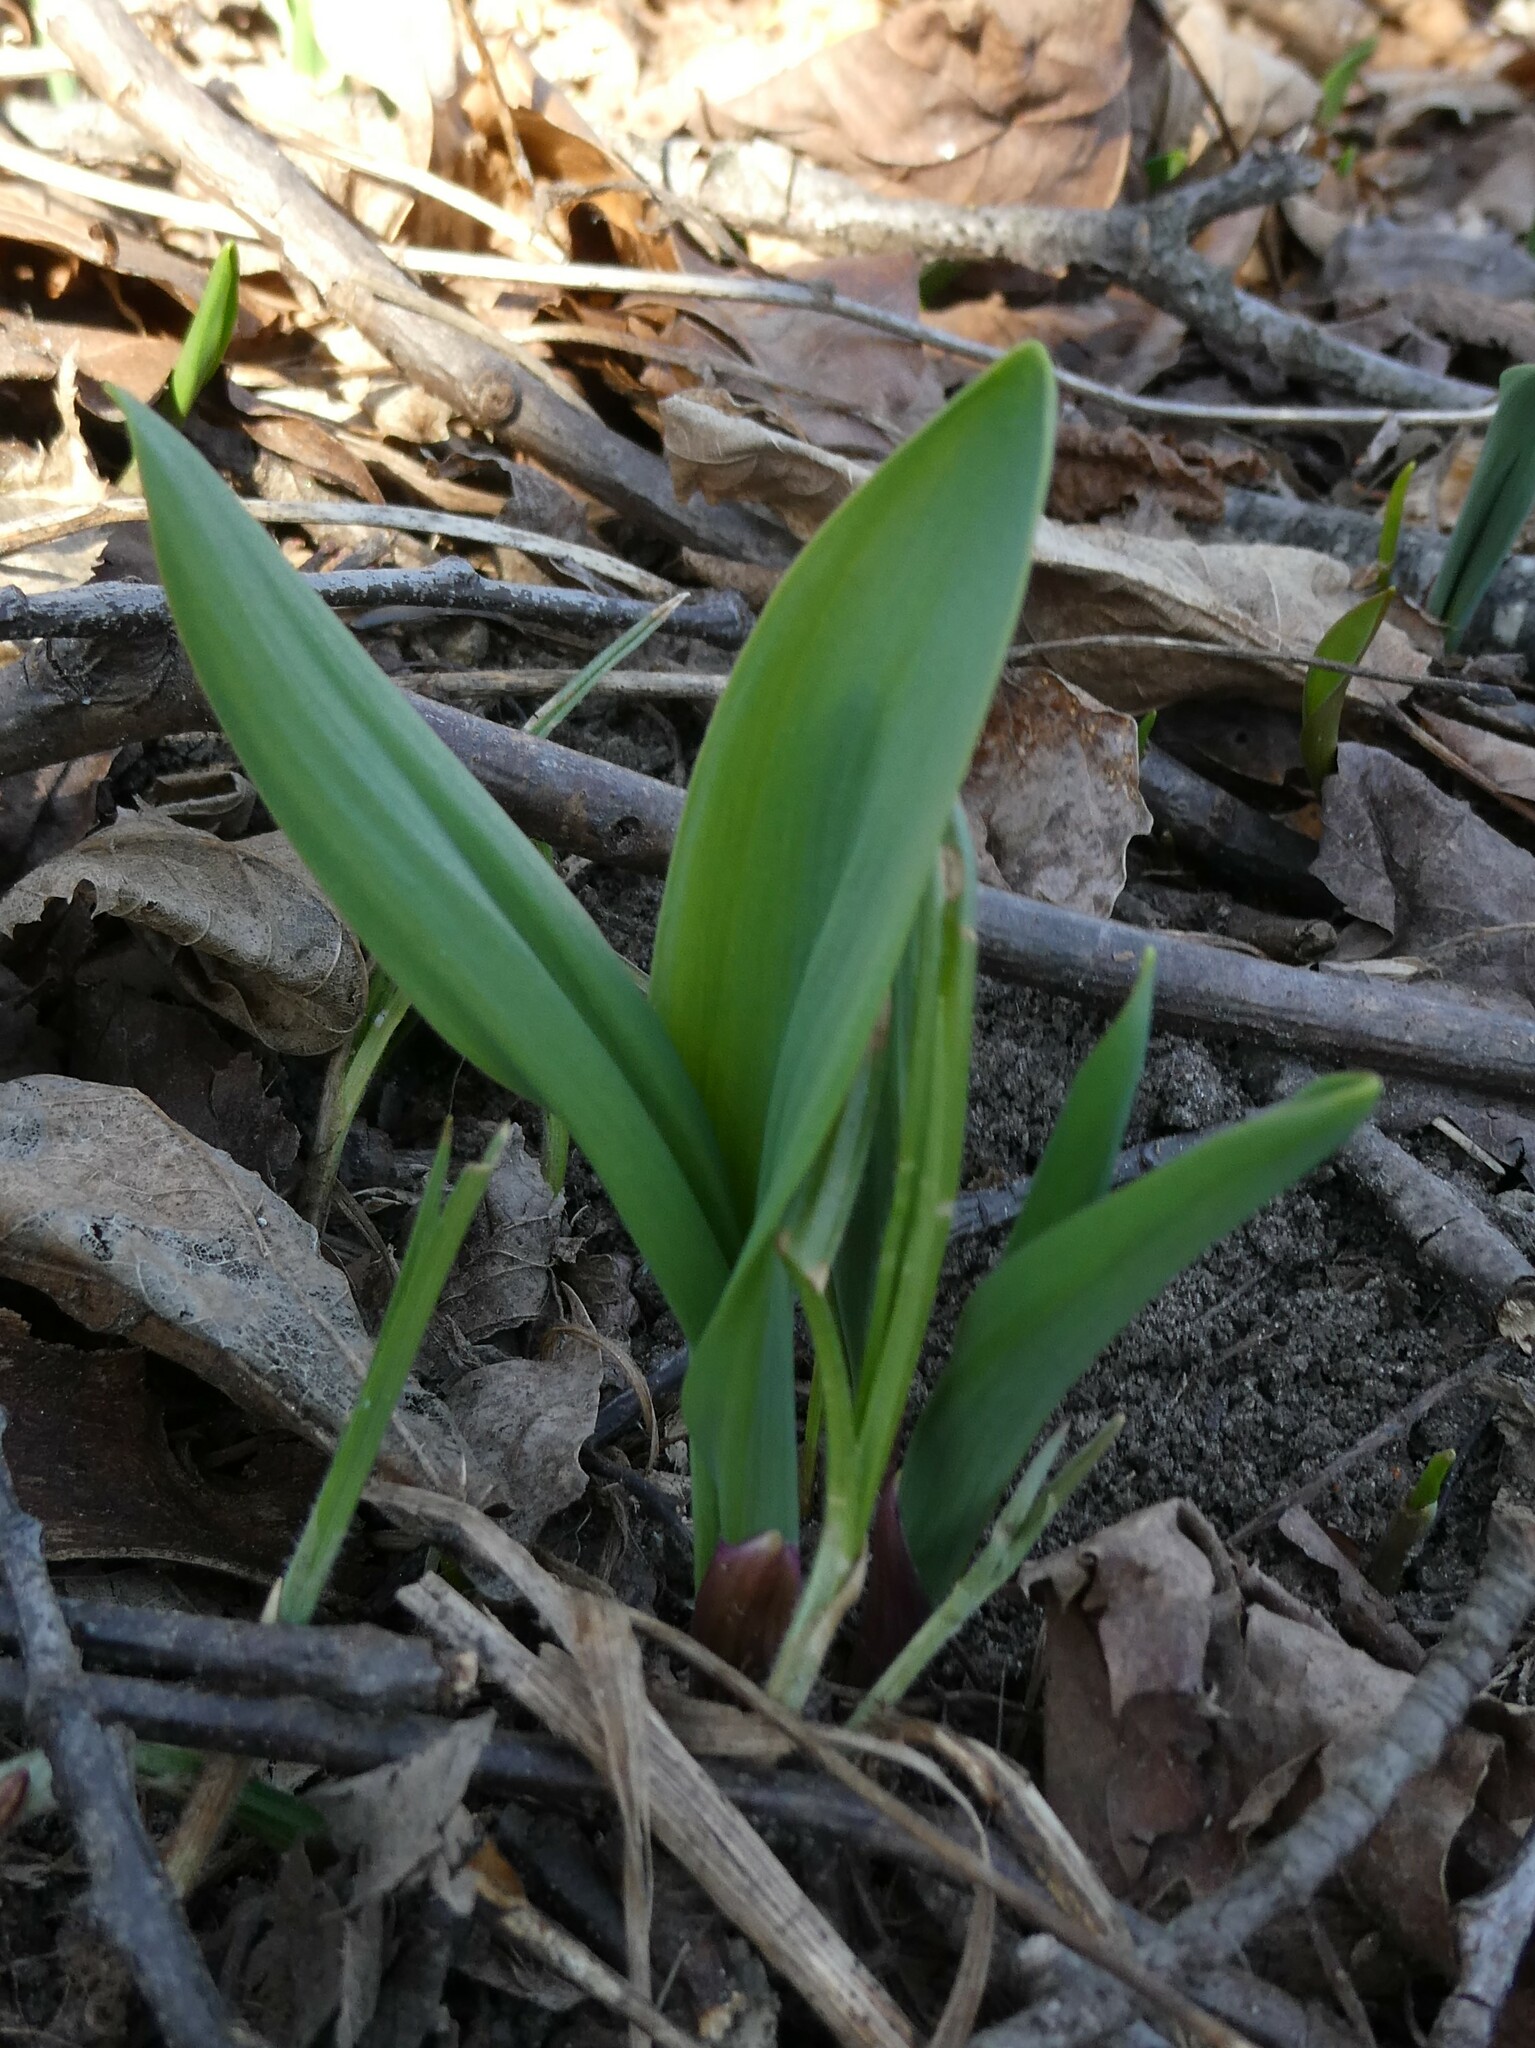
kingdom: Plantae
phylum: Tracheophyta
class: Liliopsida
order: Asparagales
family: Amaryllidaceae
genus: Allium
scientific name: Allium tricoccum
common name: Ramp
